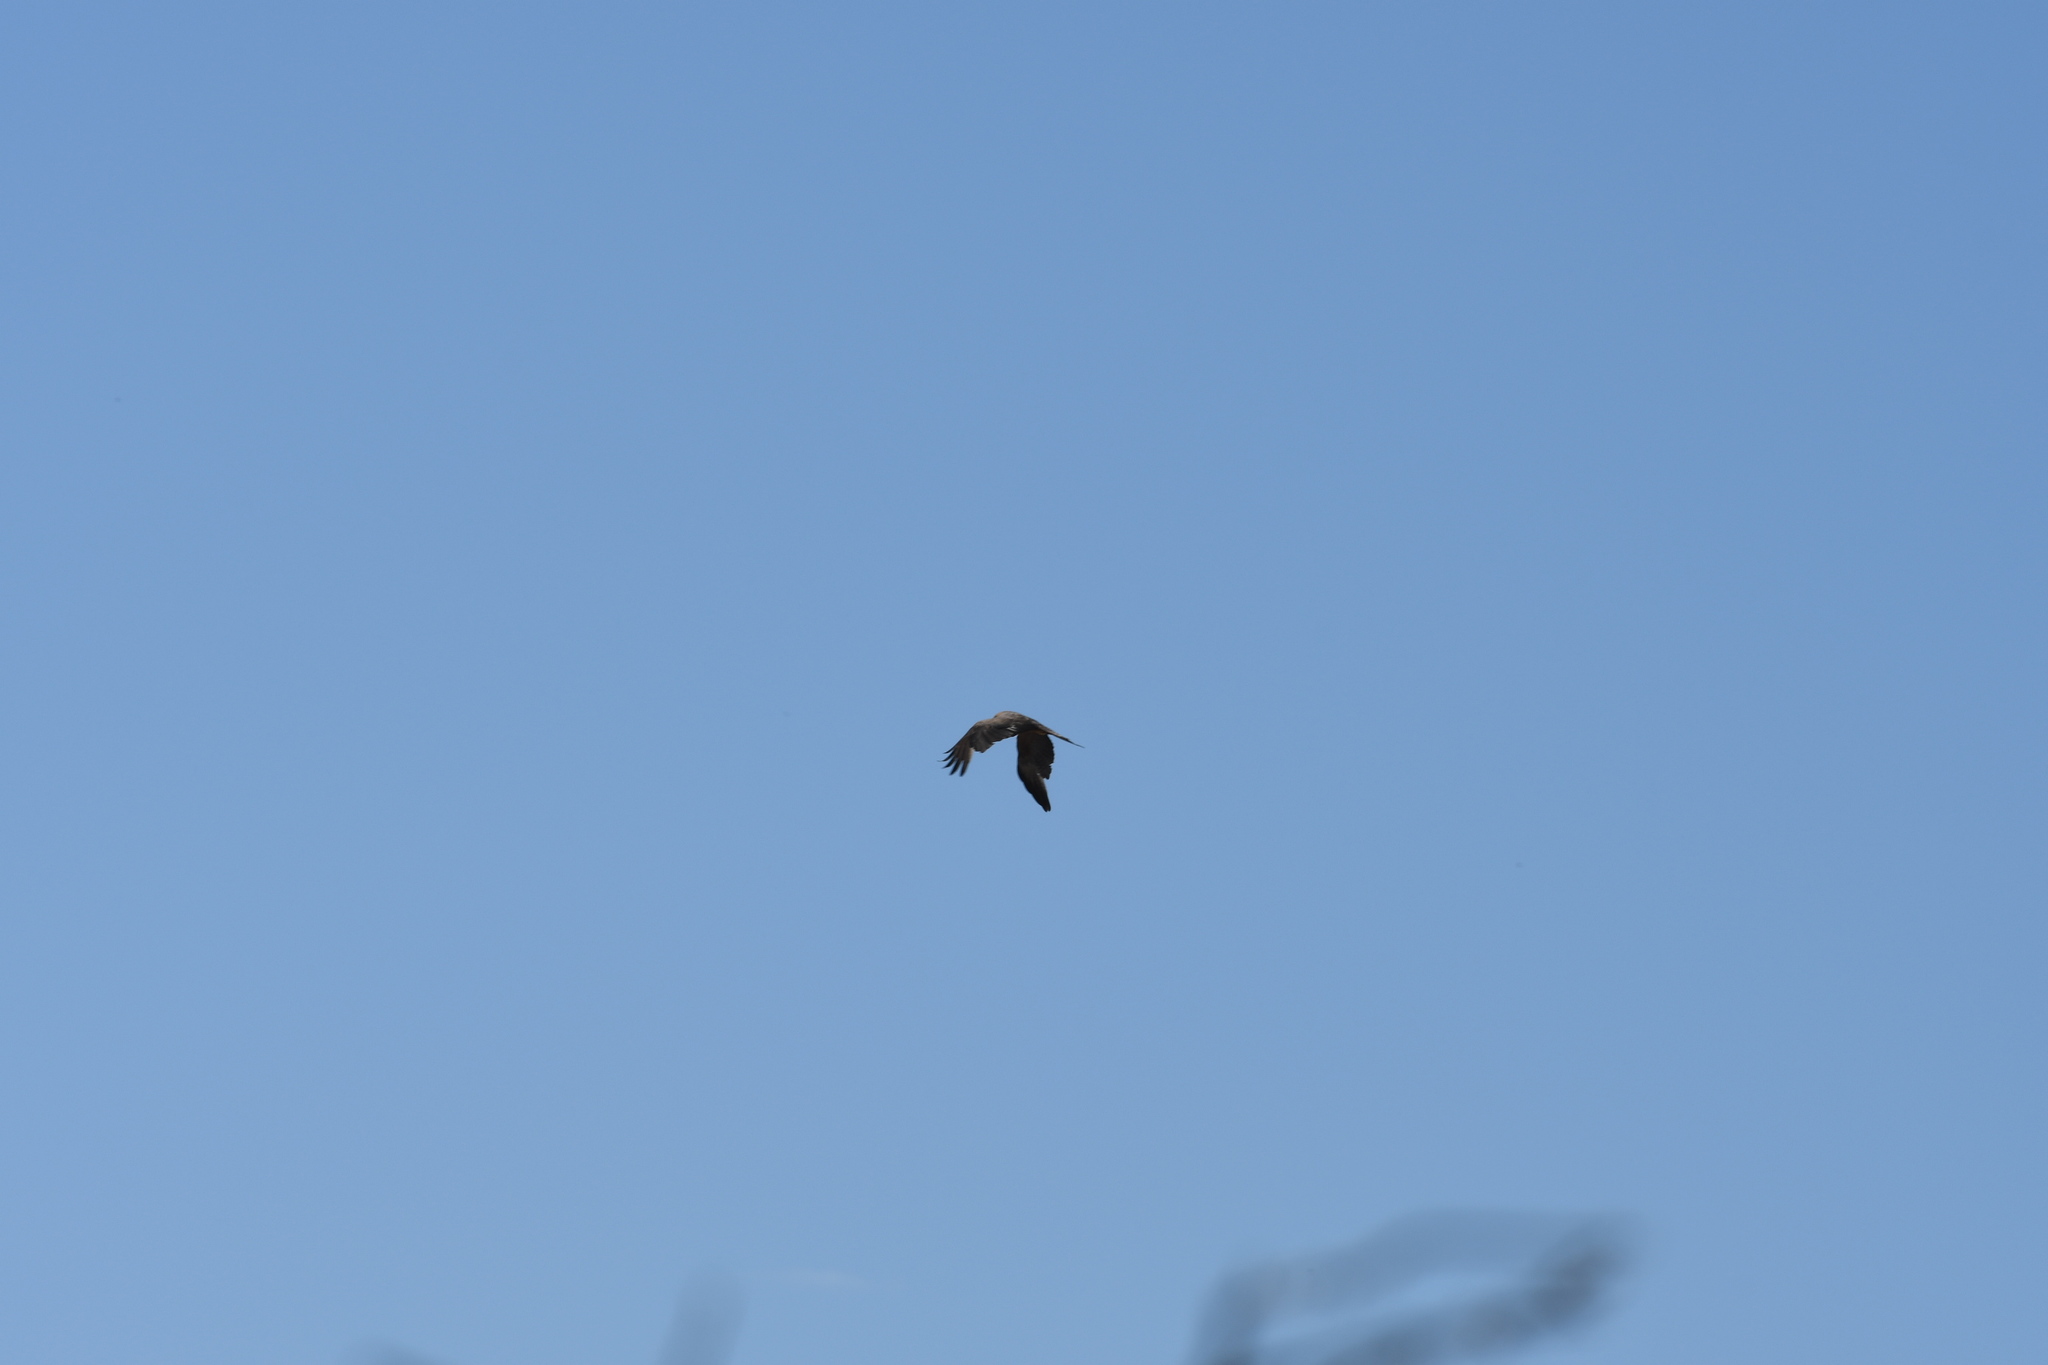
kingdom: Animalia
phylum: Chordata
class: Aves
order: Accipitriformes
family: Accipitridae
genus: Milvus
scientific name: Milvus migrans
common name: Black kite
